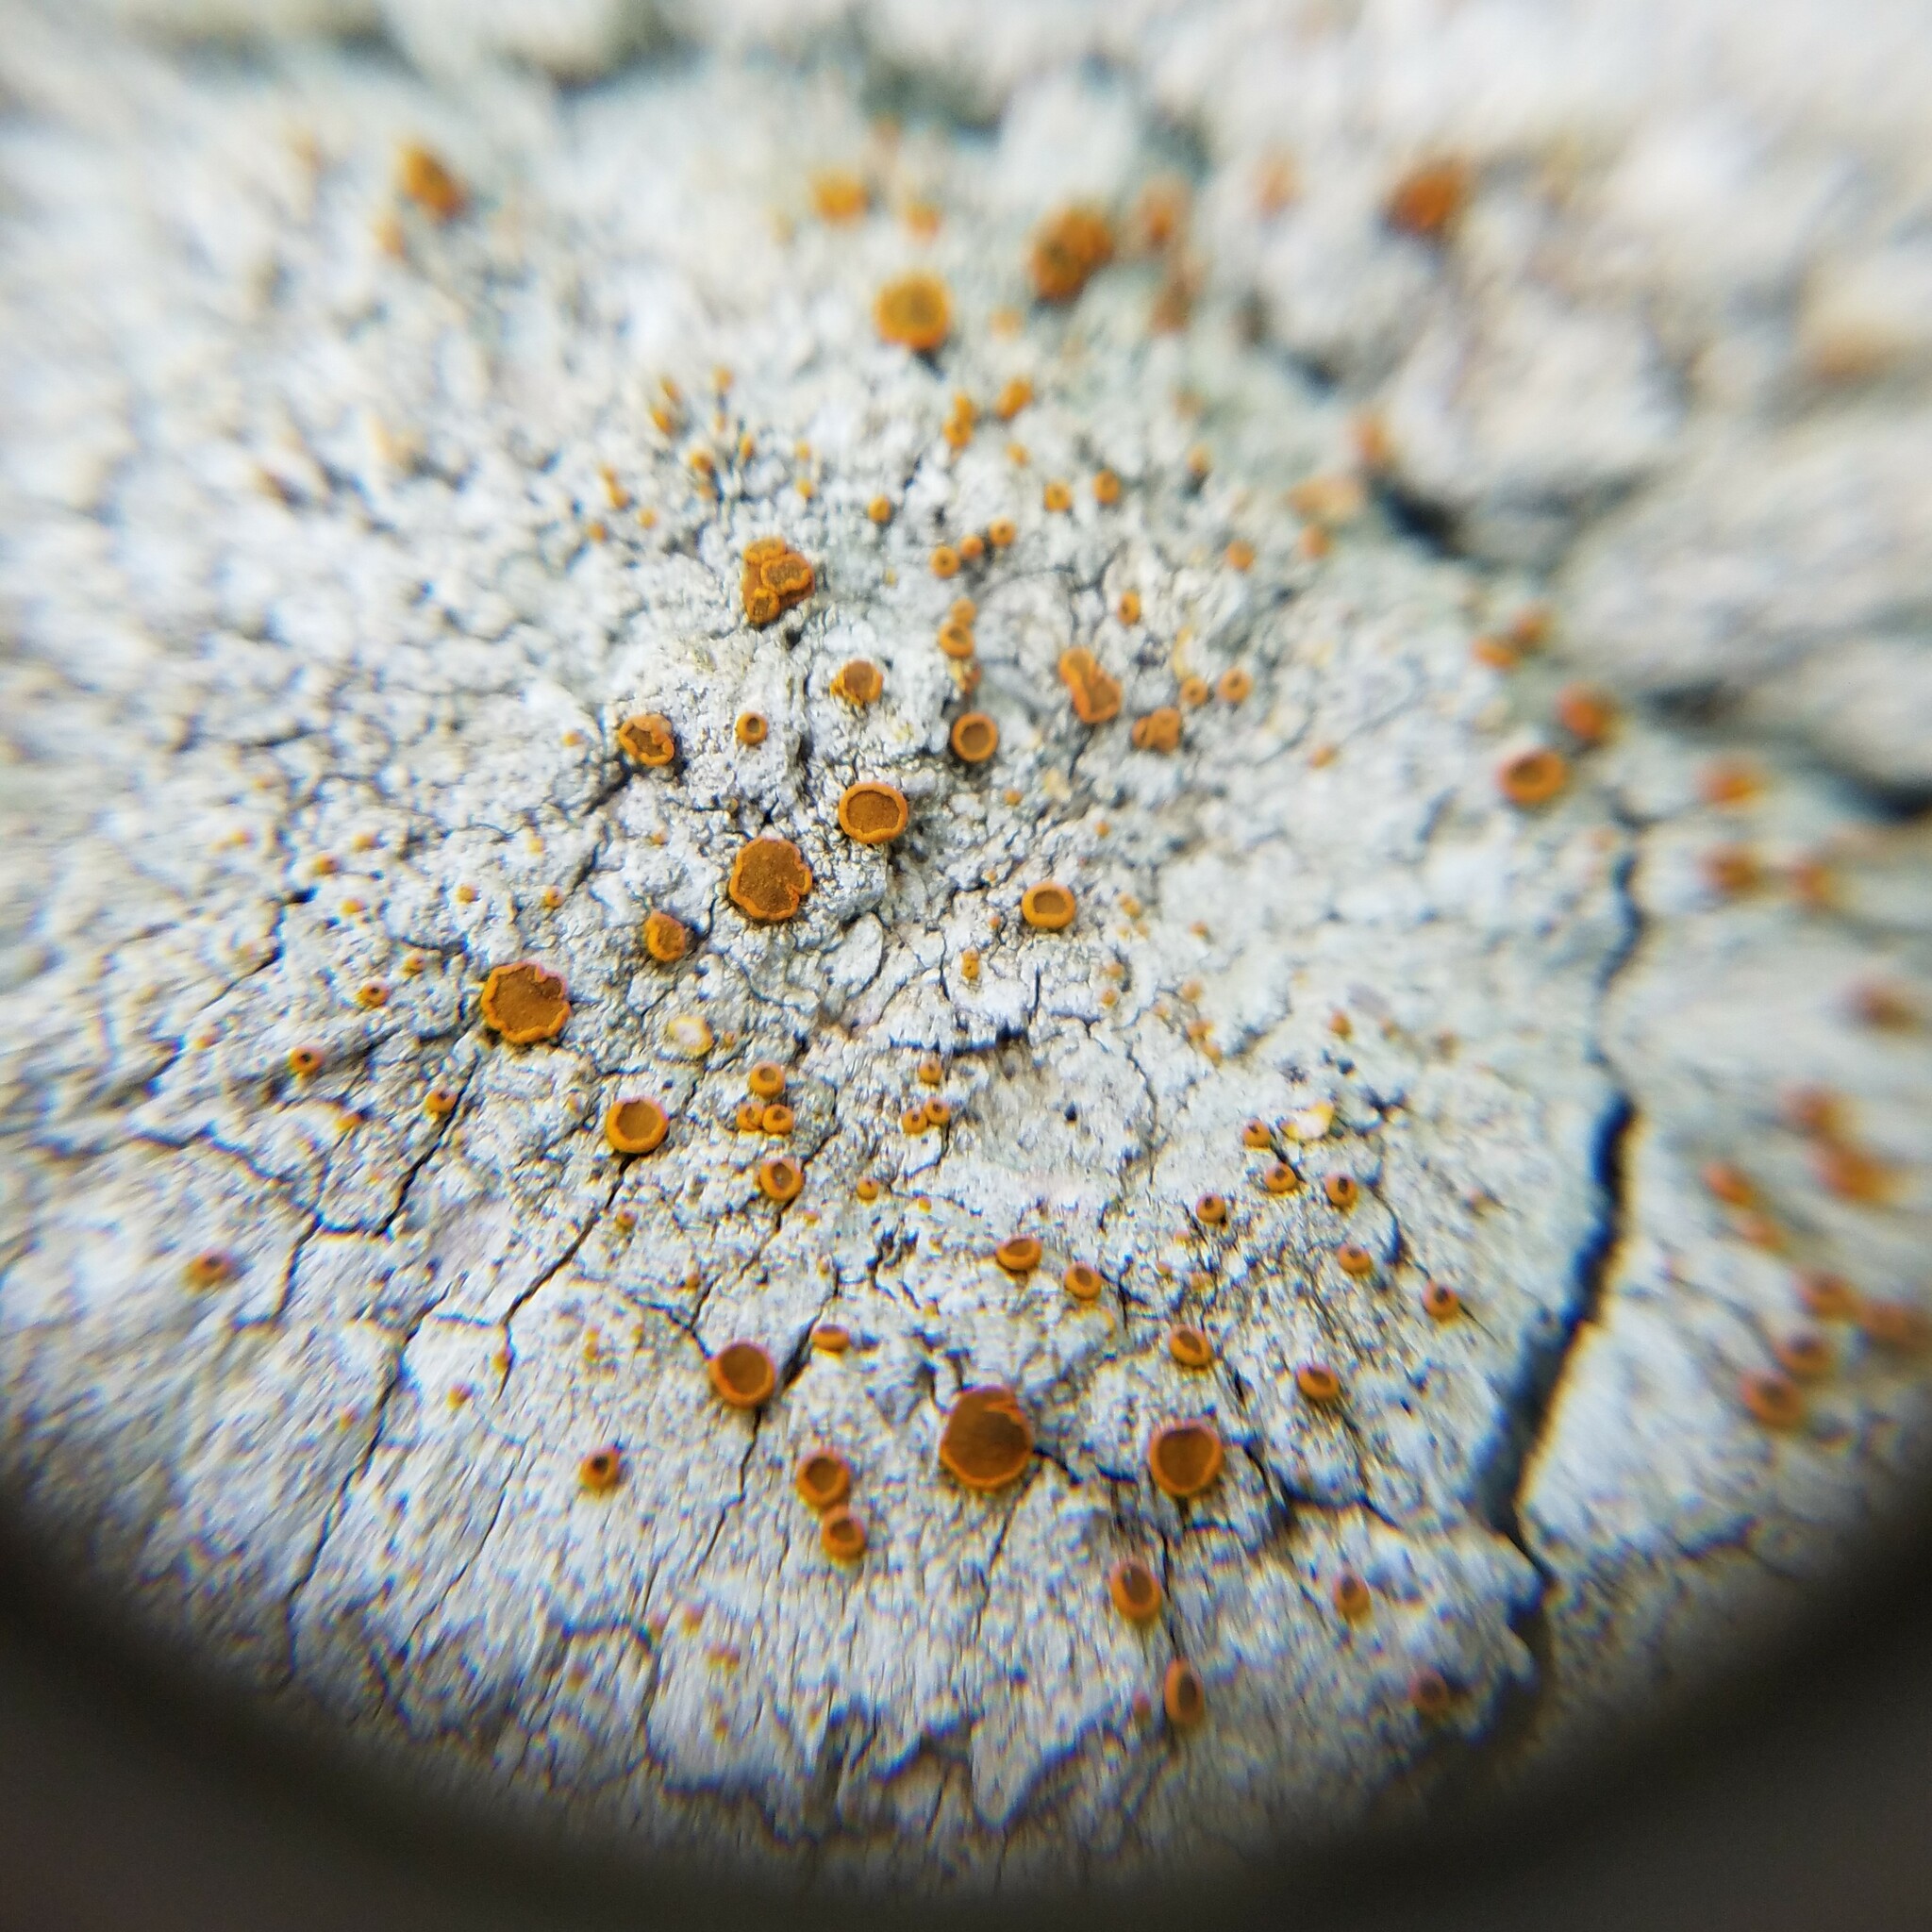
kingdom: Fungi
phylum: Ascomycota
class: Lecanoromycetes
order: Teloschistales
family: Brigantiaeaceae
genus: Brigantiaea
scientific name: Brigantiaea leucoxantha
